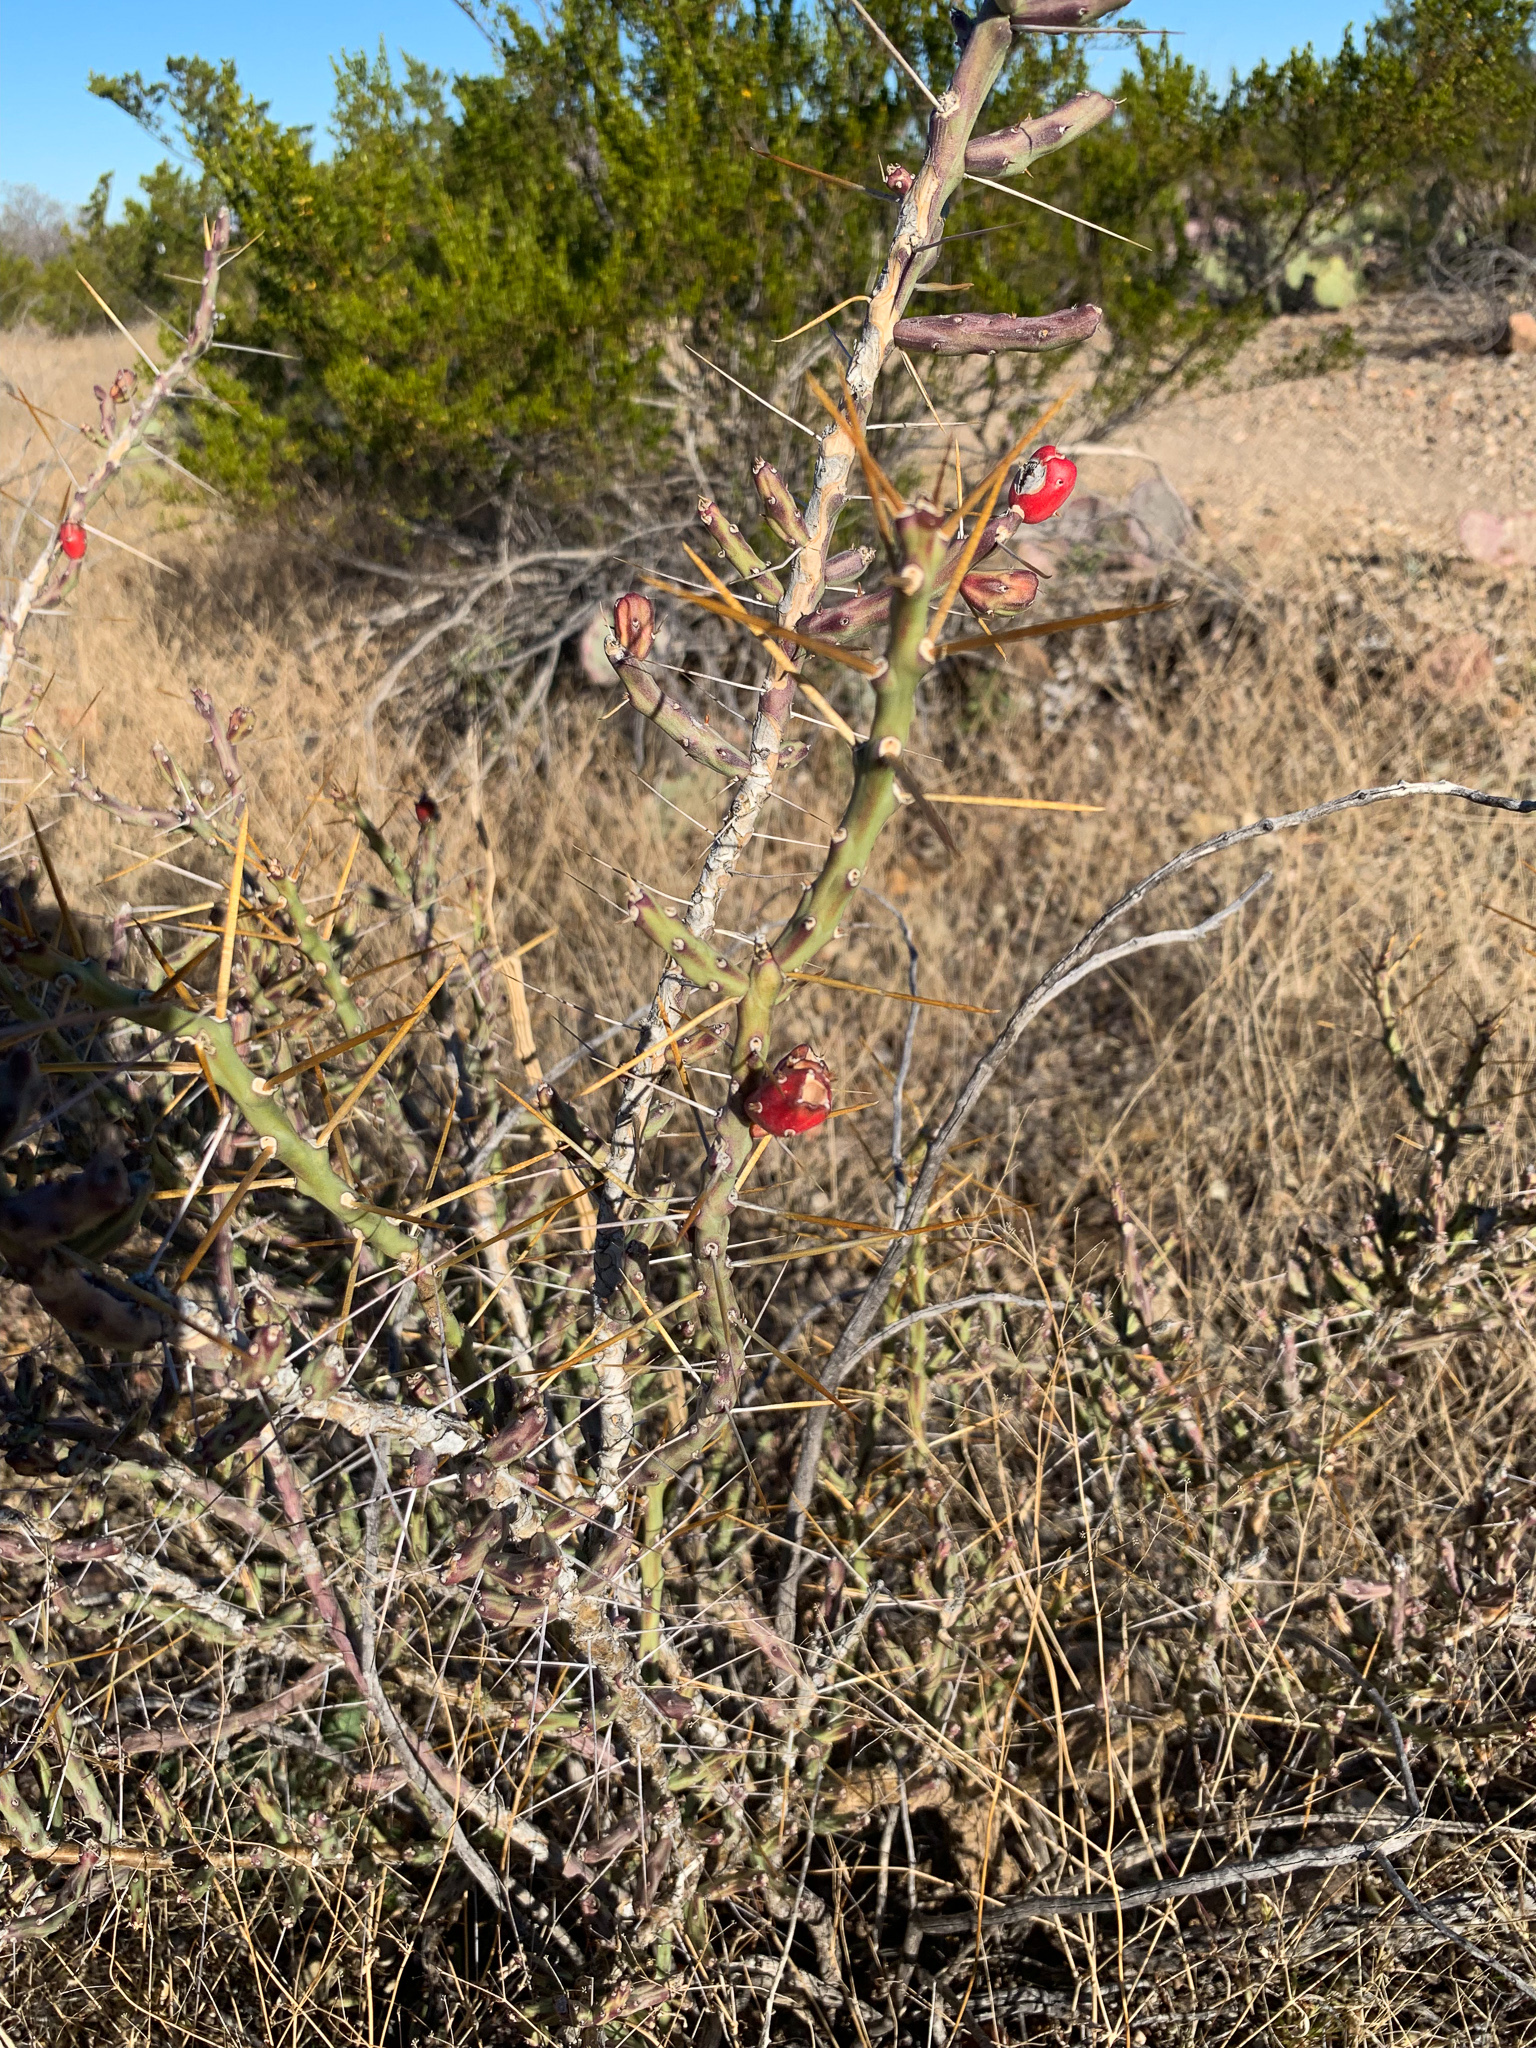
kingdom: Plantae
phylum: Tracheophyta
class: Magnoliopsida
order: Caryophyllales
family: Cactaceae
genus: Cylindropuntia
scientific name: Cylindropuntia leptocaulis
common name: Christmas cactus
